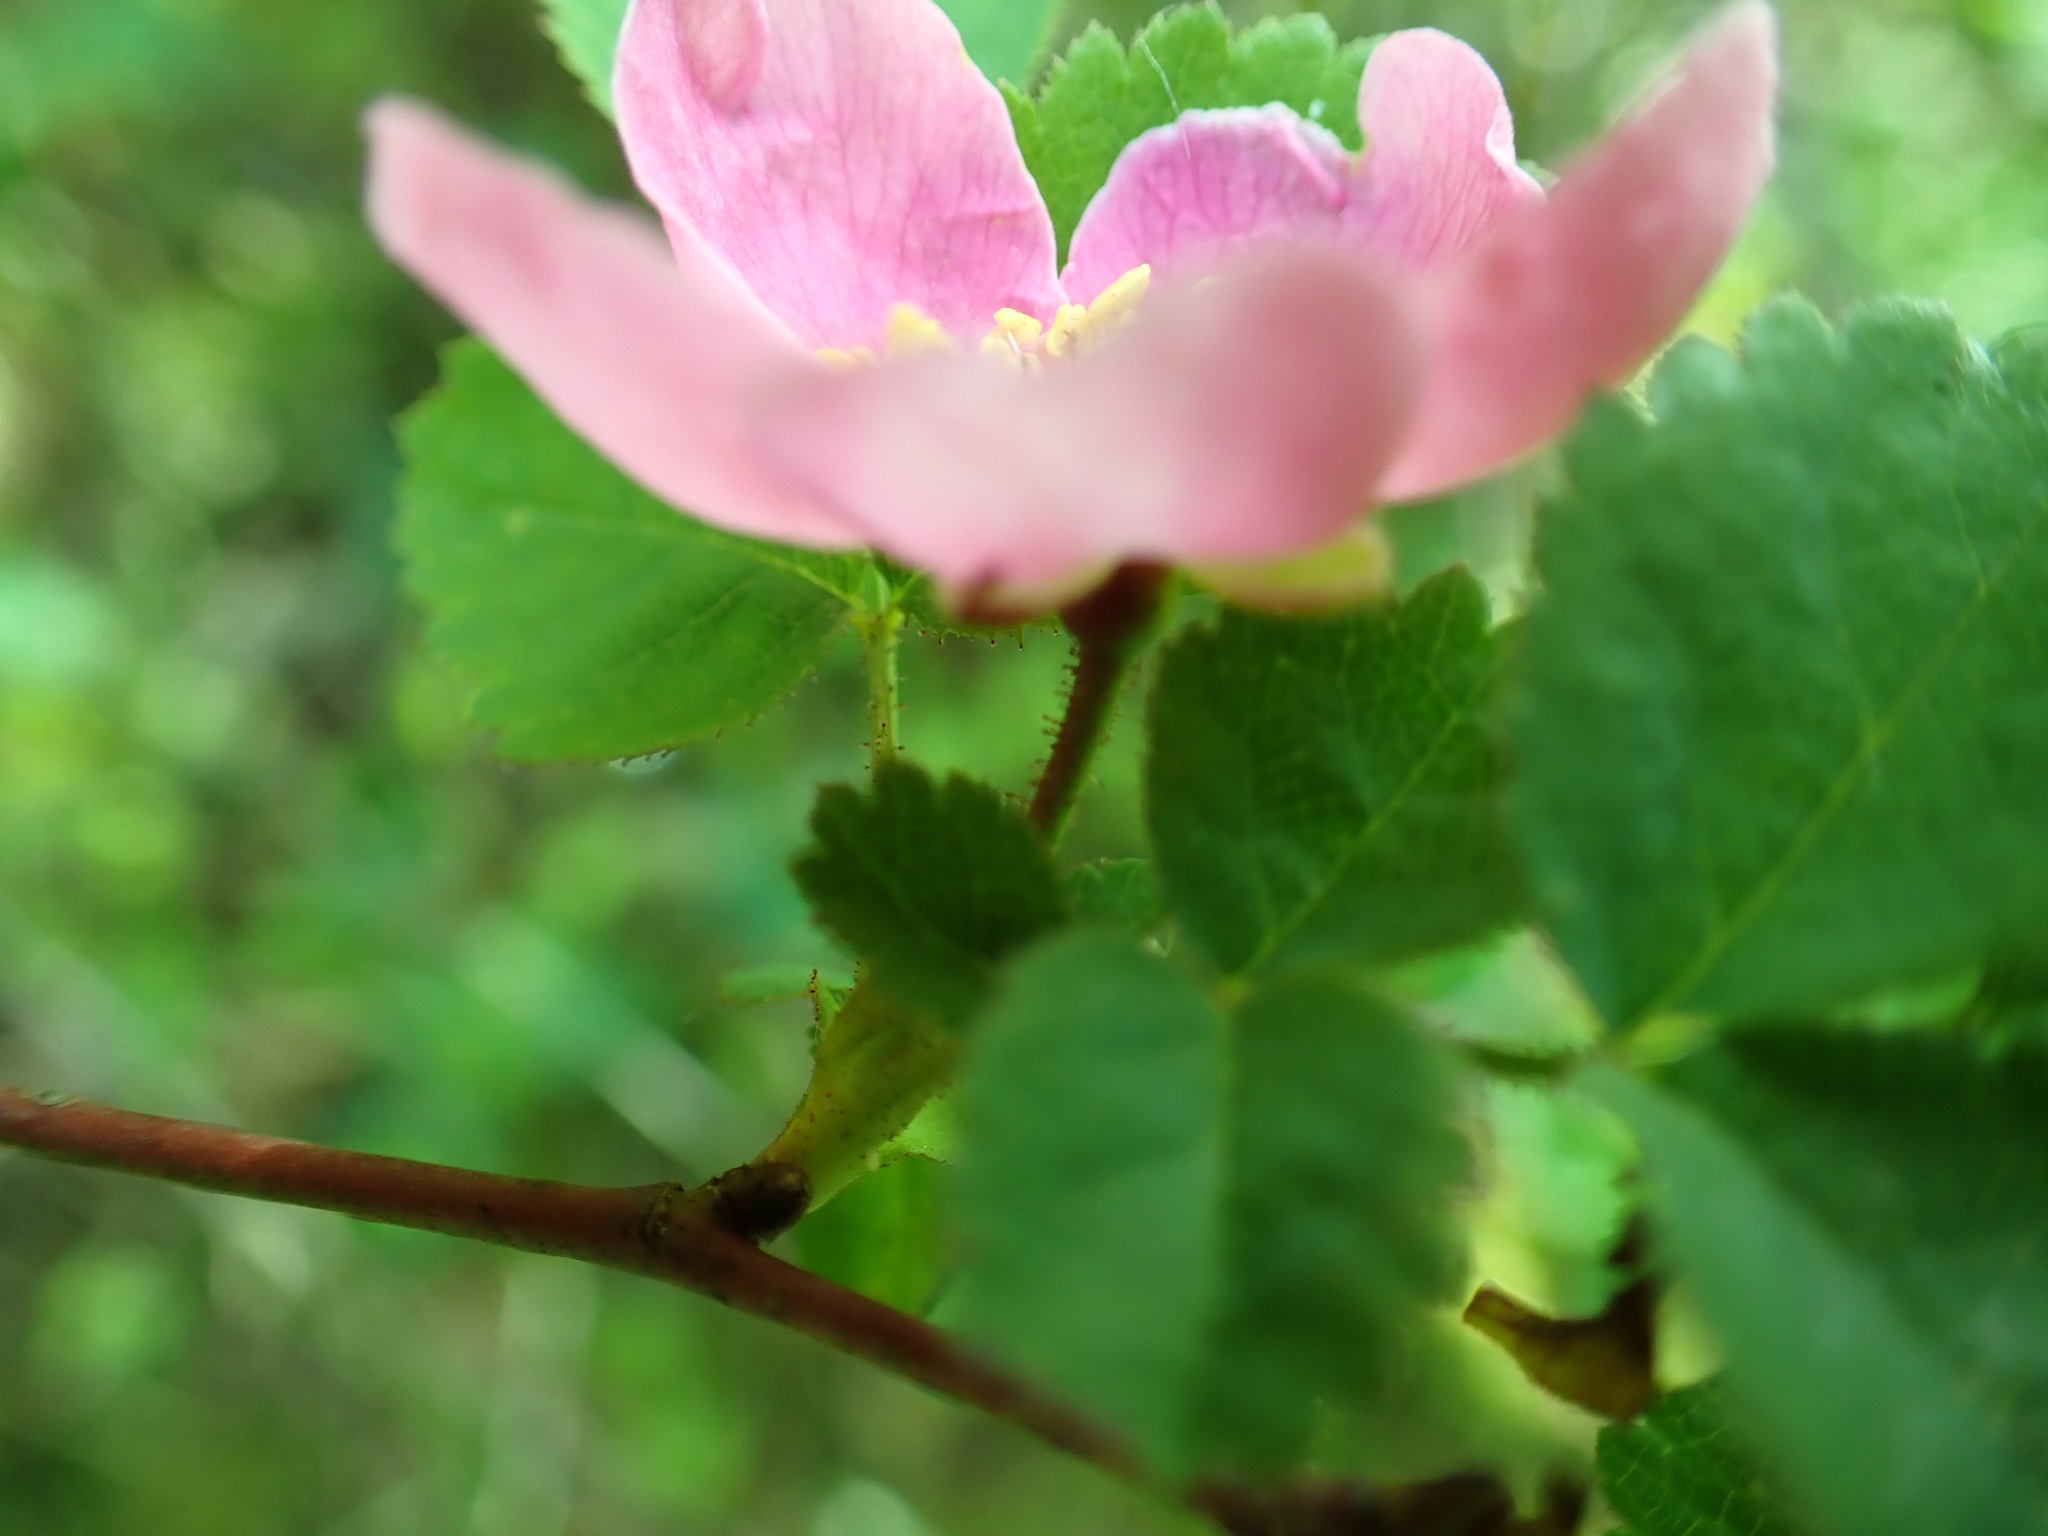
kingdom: Plantae
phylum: Tracheophyta
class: Magnoliopsida
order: Rosales
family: Rosaceae
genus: Rosa
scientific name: Rosa gymnocarpa
